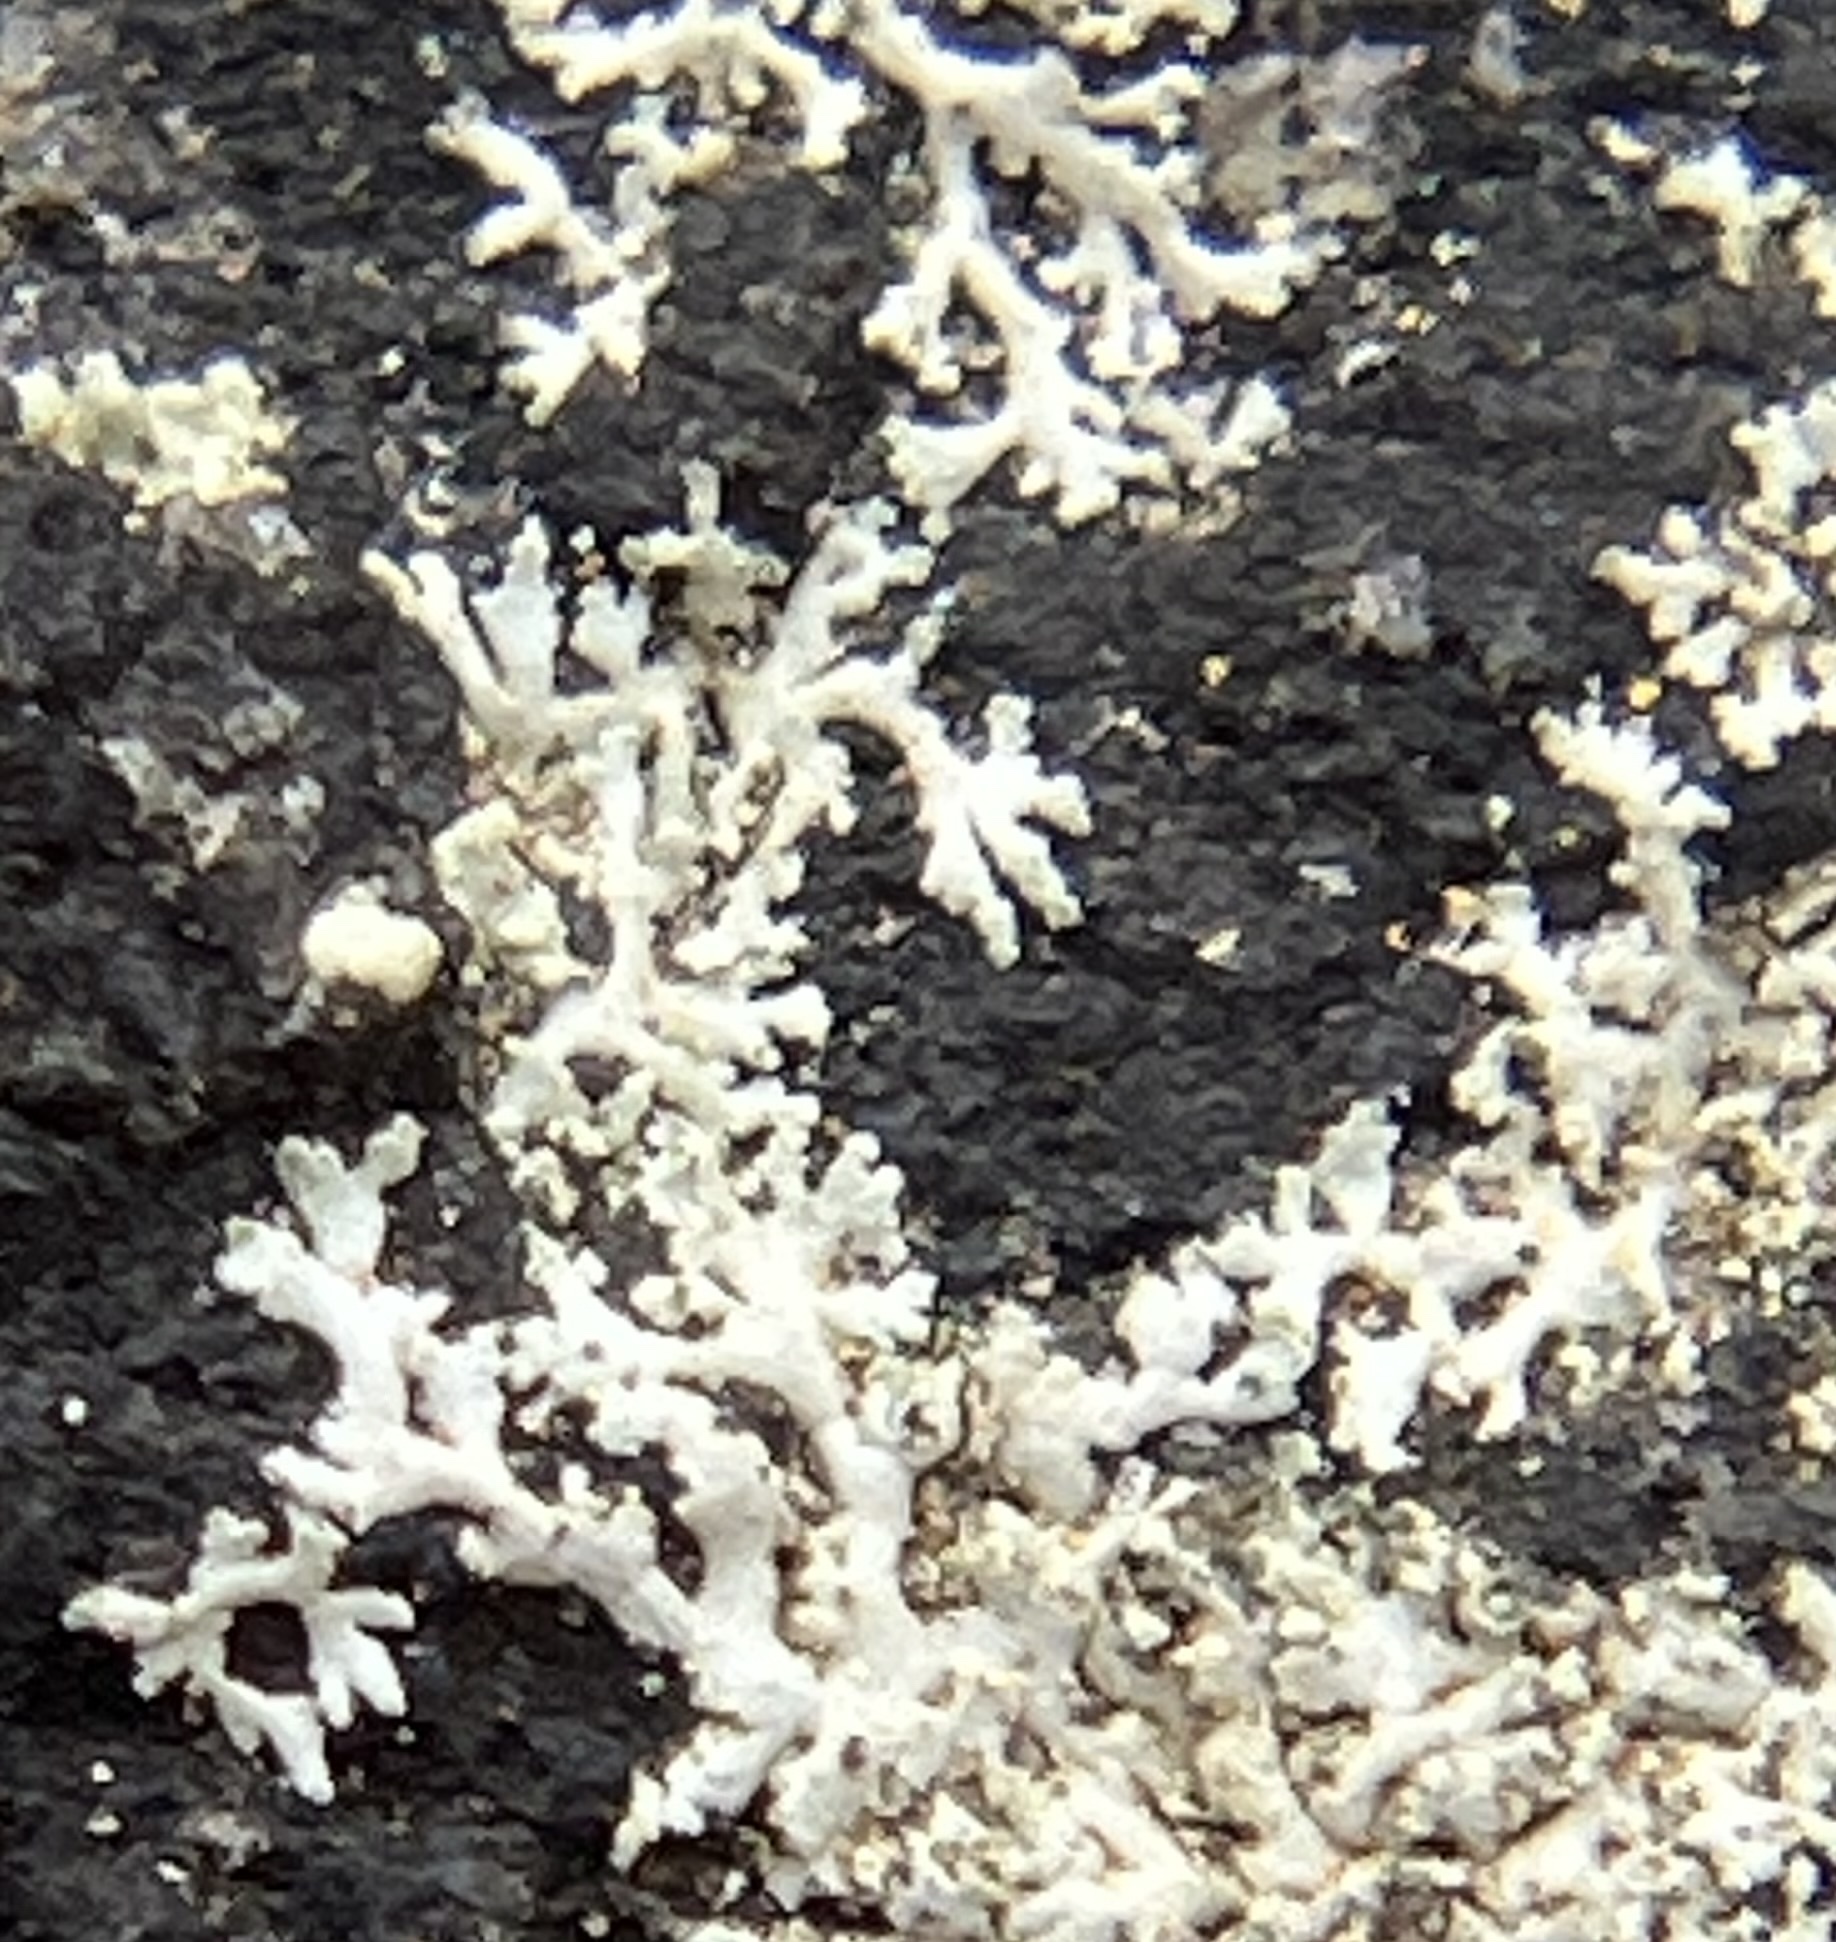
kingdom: Fungi
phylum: Ascomycota
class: Lecanoromycetes
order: Caliciales
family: Physciaceae
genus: Physcia
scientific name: Physcia subtilis
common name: Slender rosette lichen
